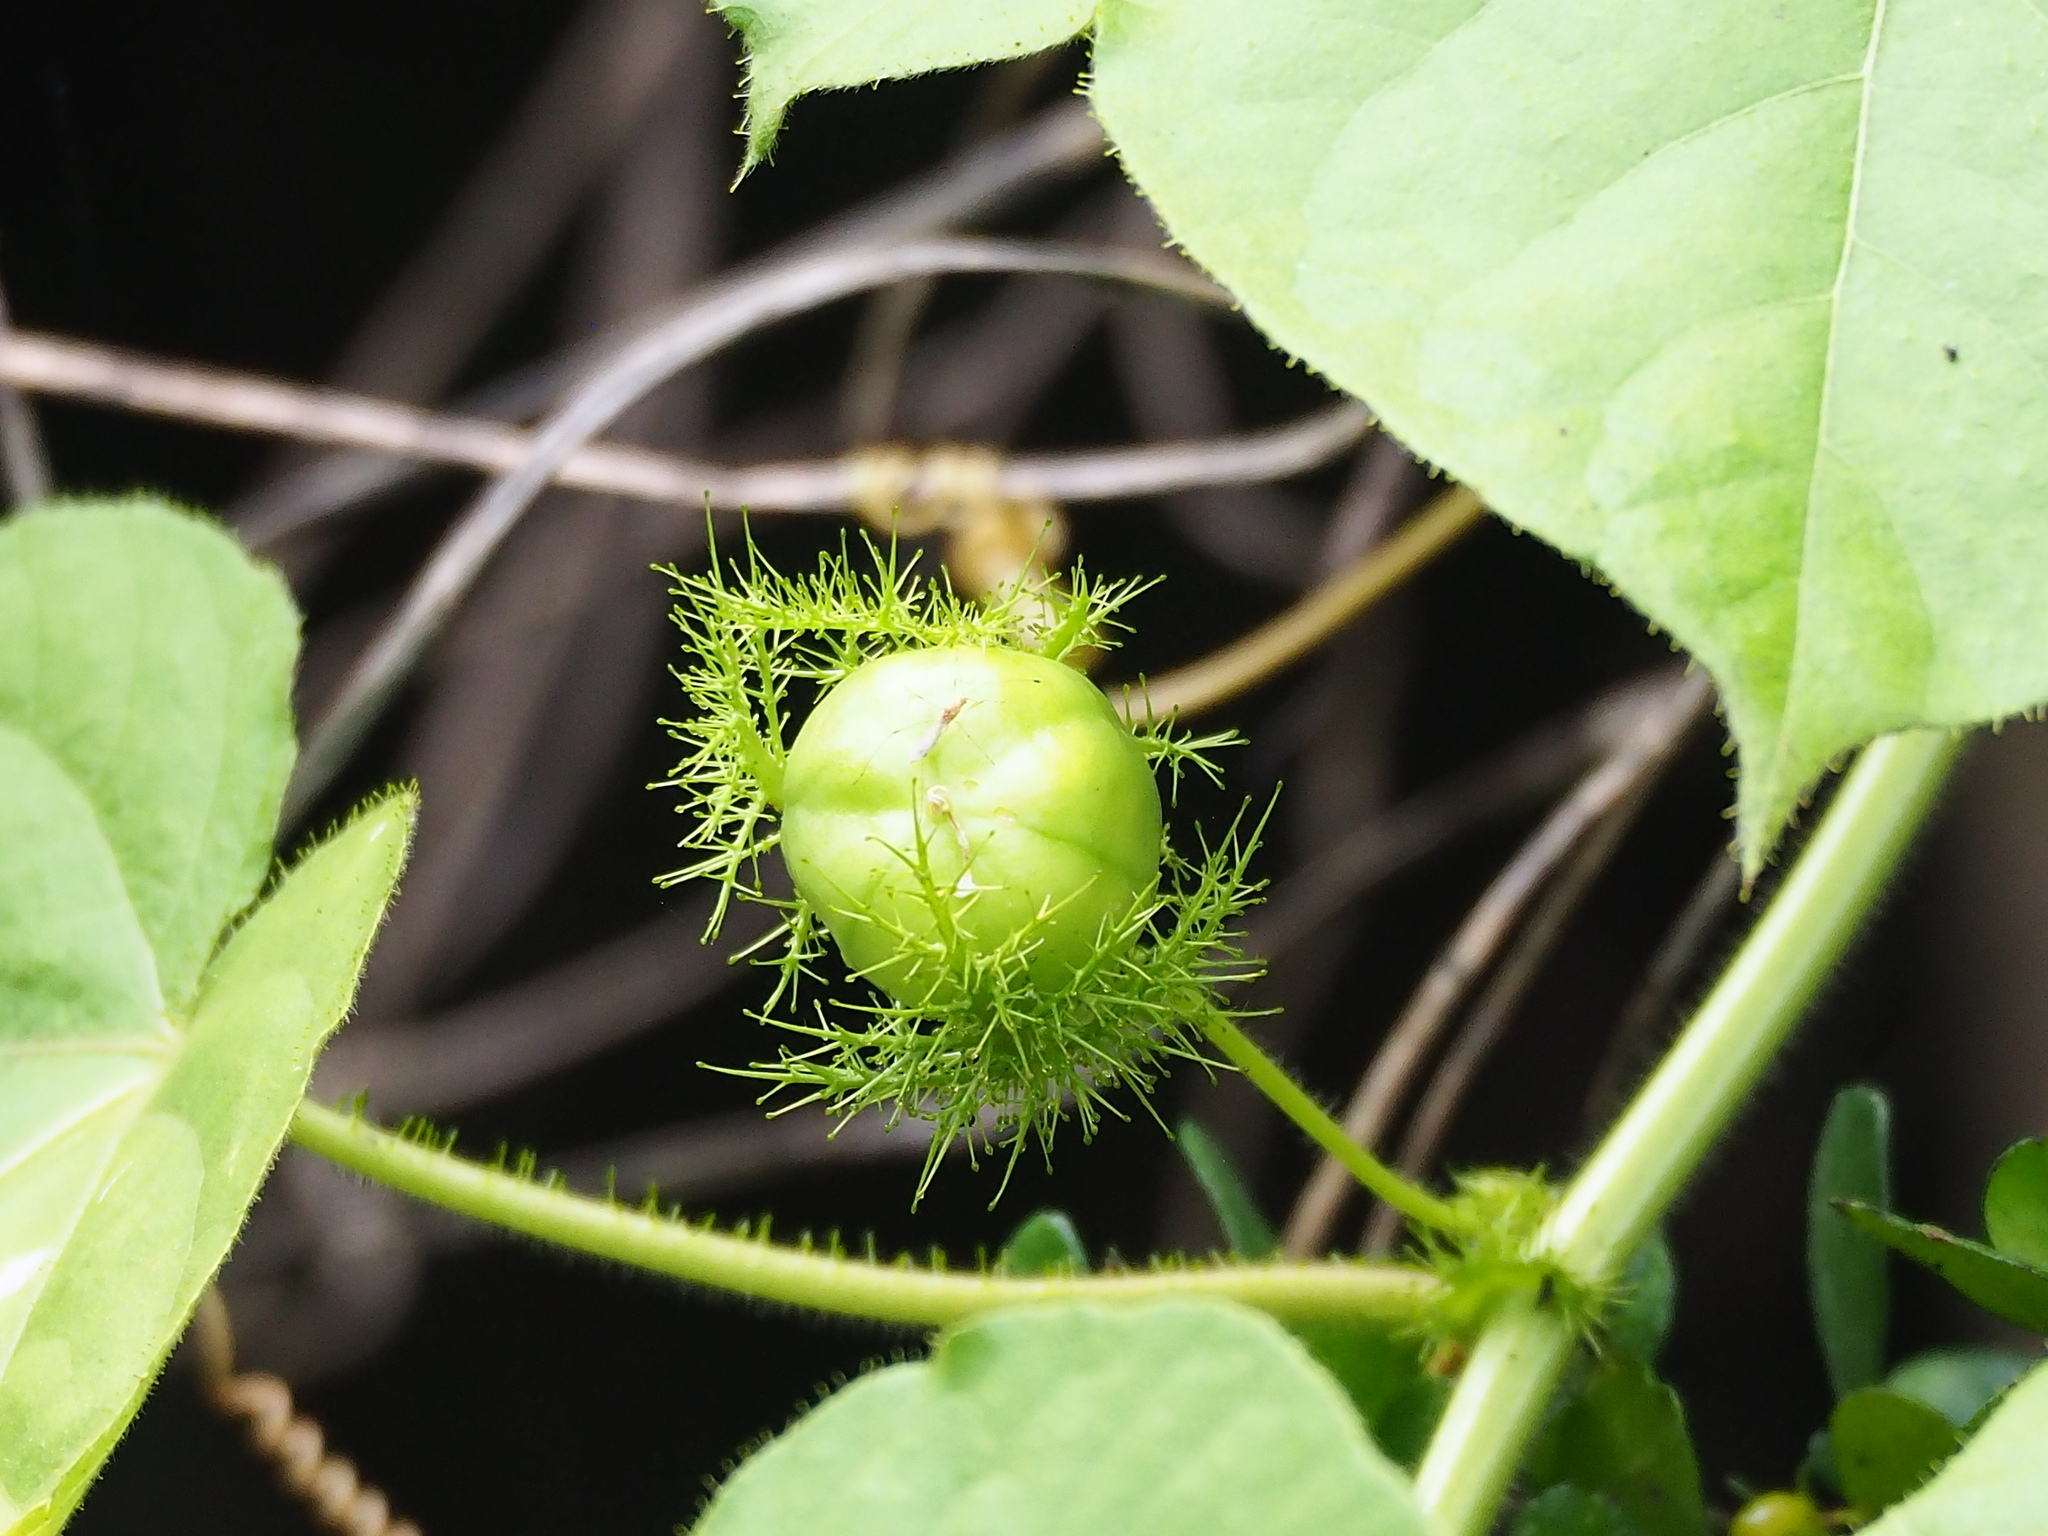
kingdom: Plantae
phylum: Tracheophyta
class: Magnoliopsida
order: Malpighiales
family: Passifloraceae
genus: Passiflora
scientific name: Passiflora vesicaria
